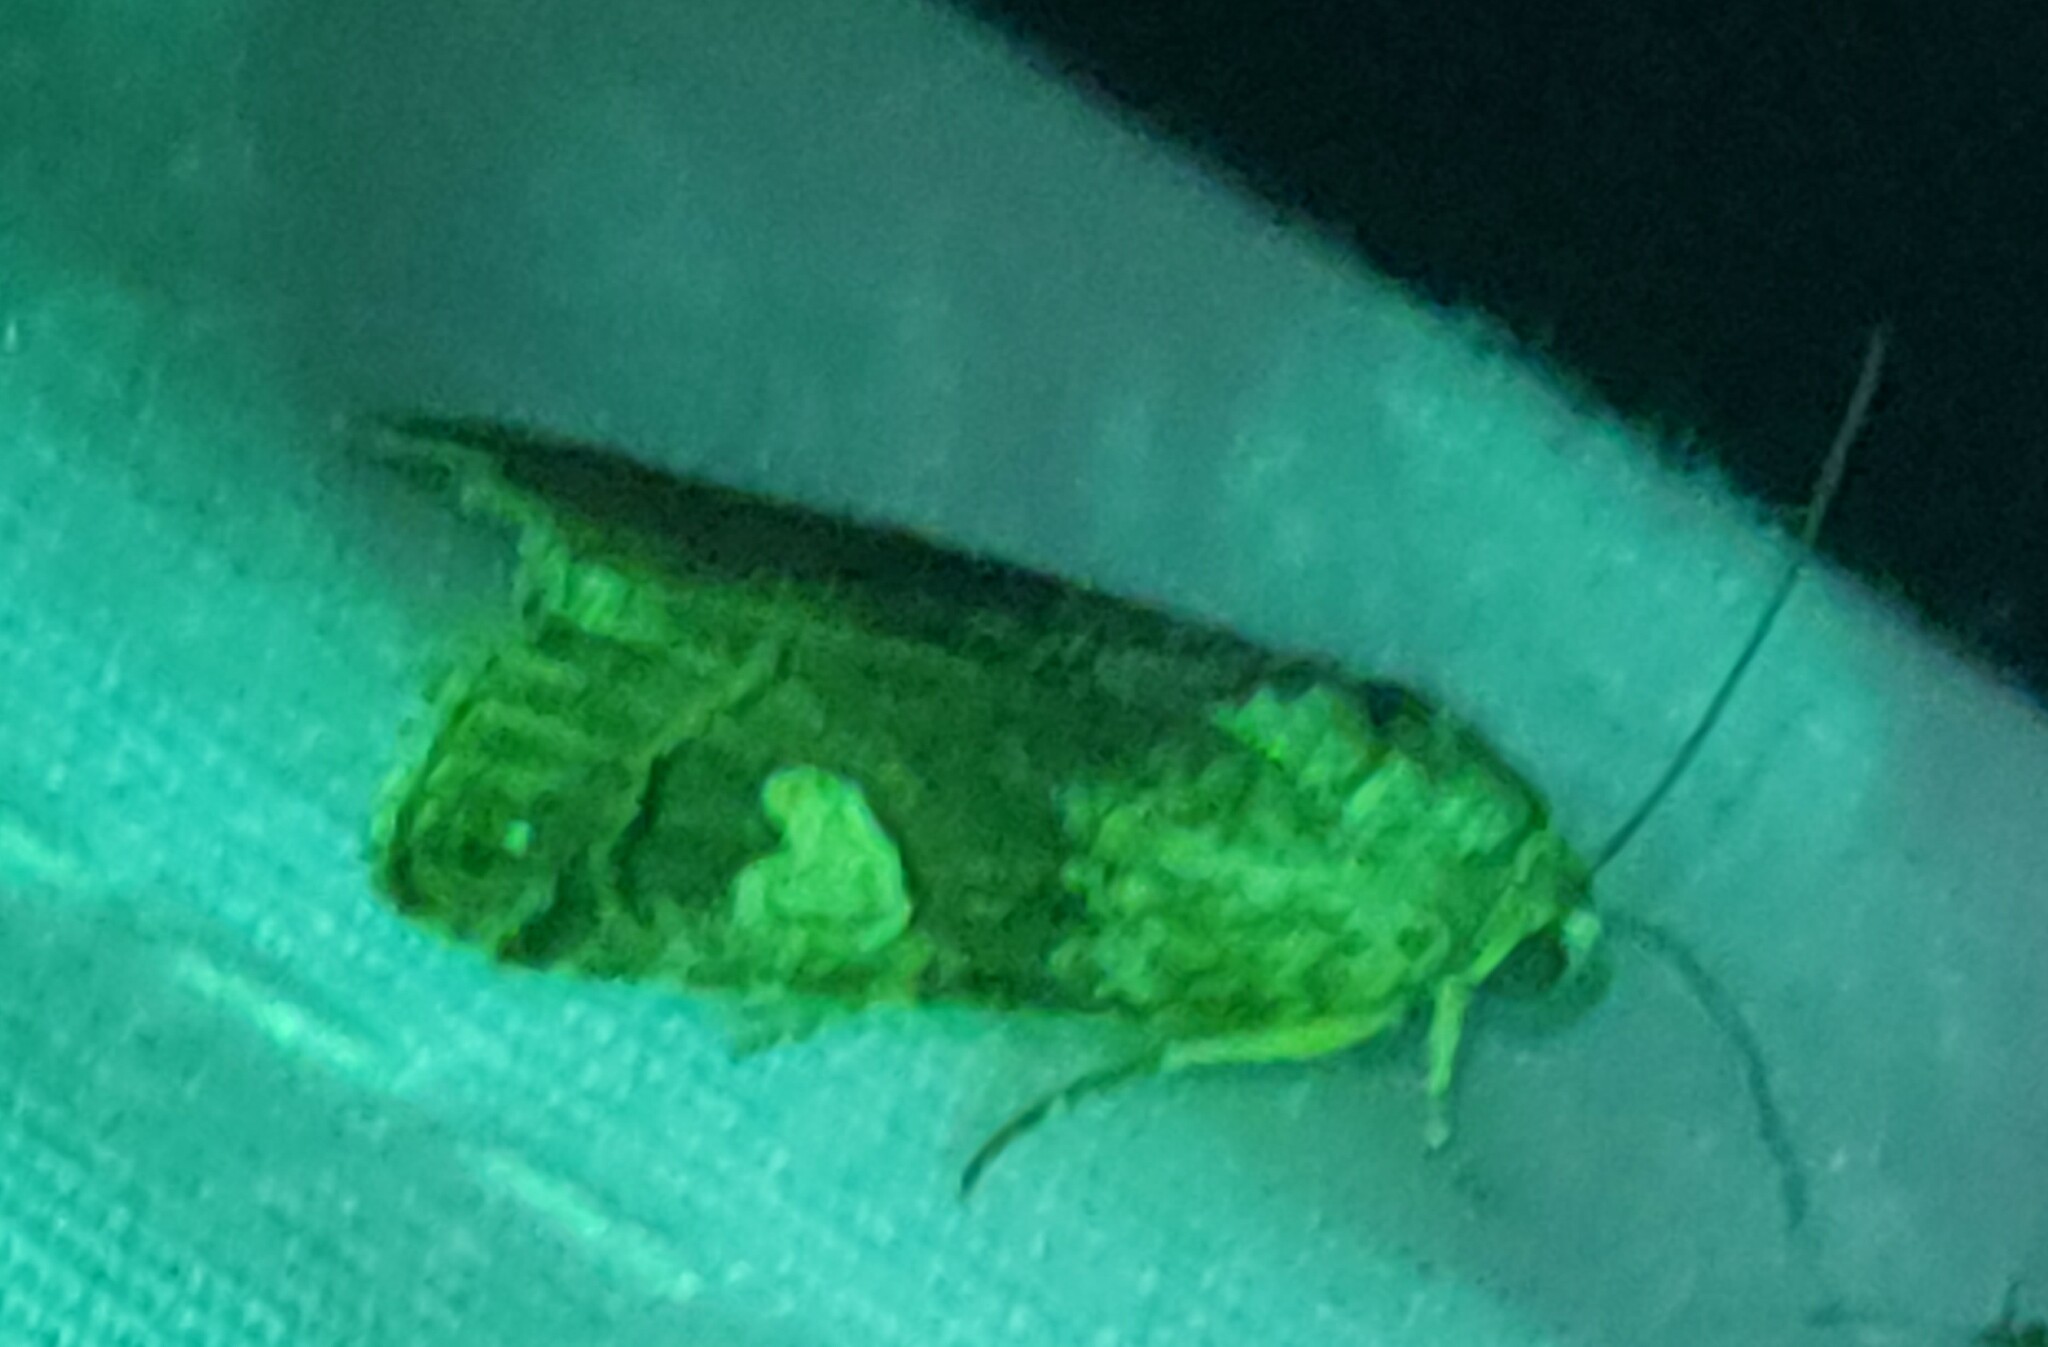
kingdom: Animalia
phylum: Arthropoda
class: Insecta
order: Lepidoptera
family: Noctuidae
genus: Metaponpneumata
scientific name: Metaponpneumata rogenhoferi
